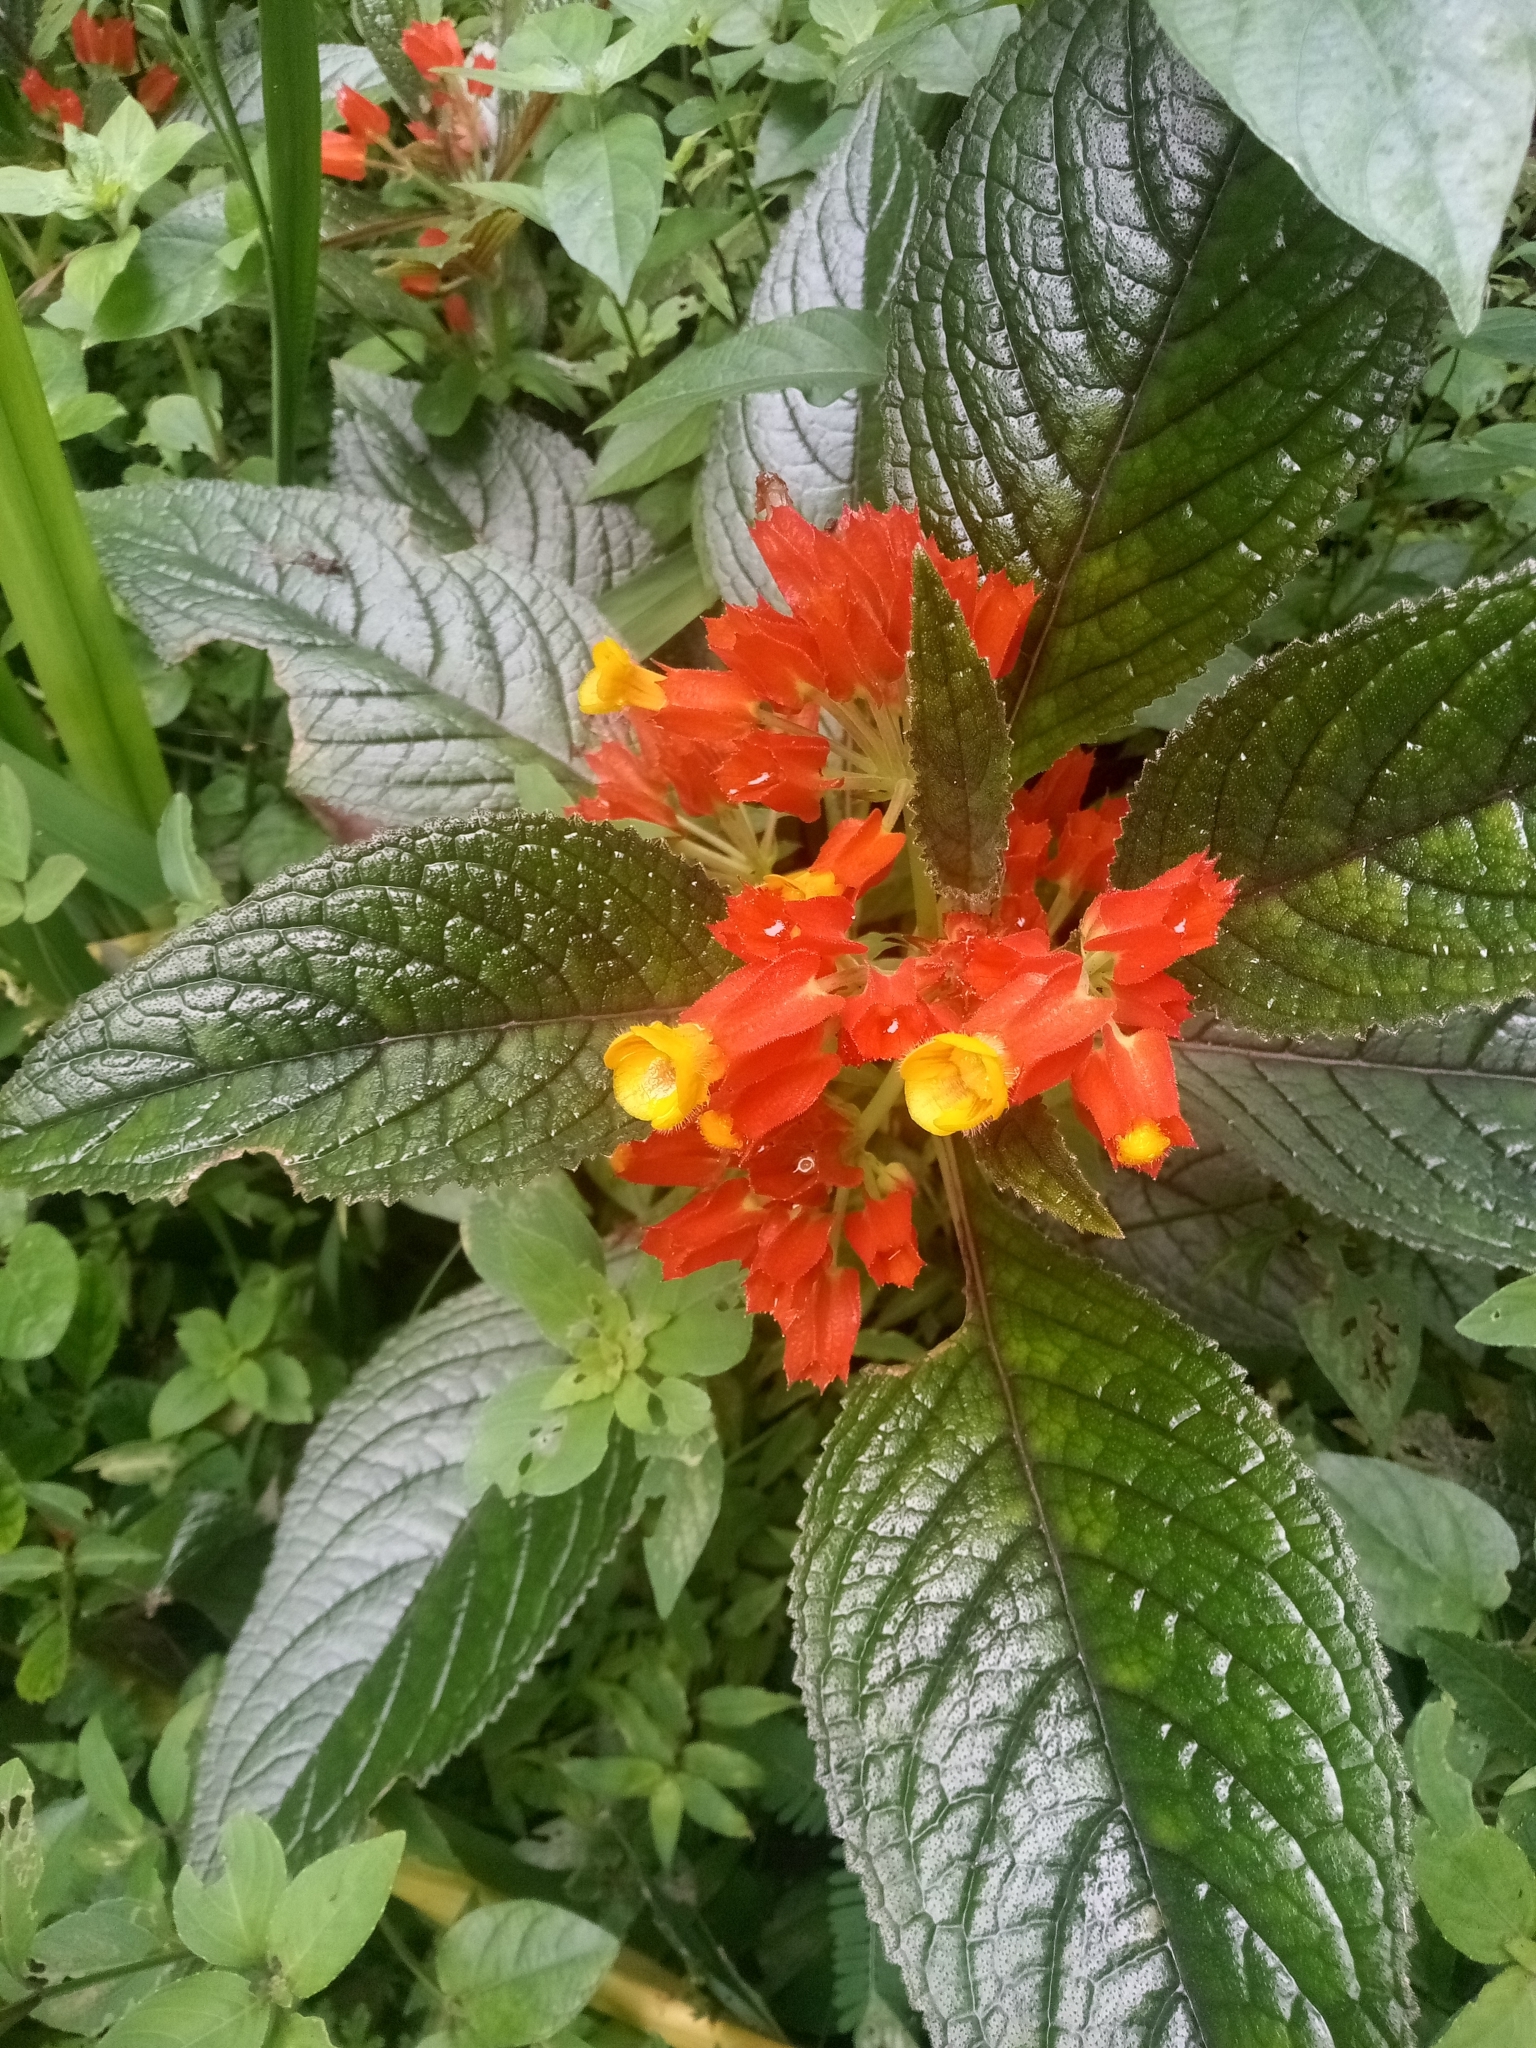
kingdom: Plantae
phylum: Tracheophyta
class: Magnoliopsida
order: Lamiales
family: Gesneriaceae
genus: Chrysothemis
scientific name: Chrysothemis pulchella
